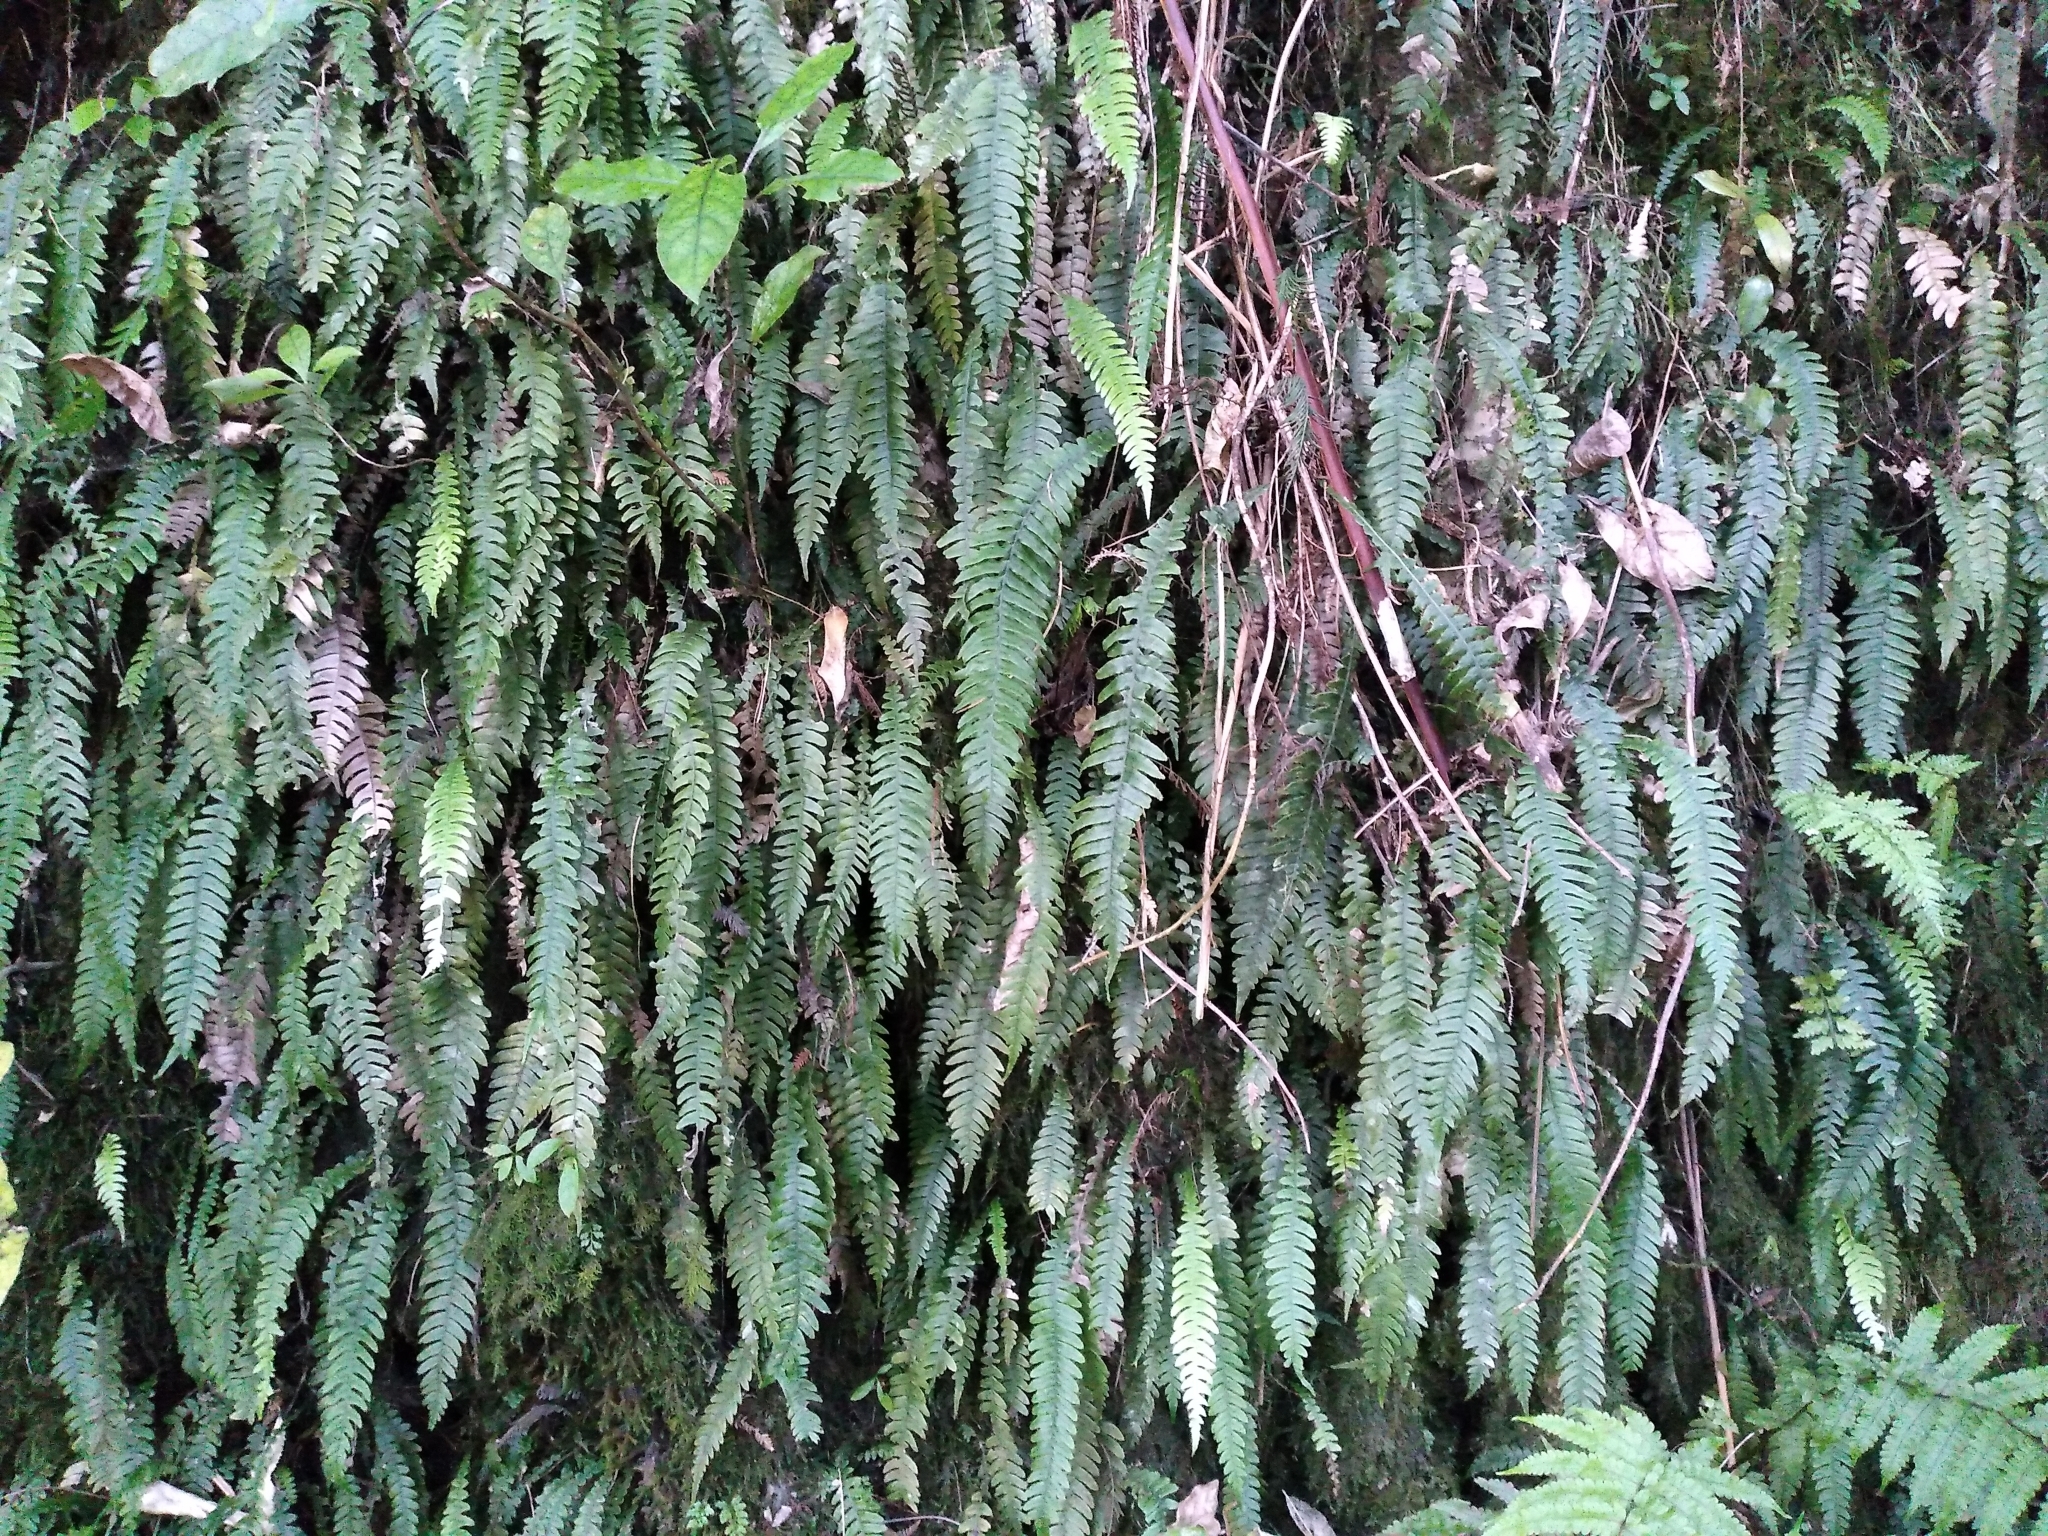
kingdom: Plantae
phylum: Tracheophyta
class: Polypodiopsida
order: Polypodiales
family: Blechnaceae
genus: Austroblechnum
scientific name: Austroblechnum lanceolatum
